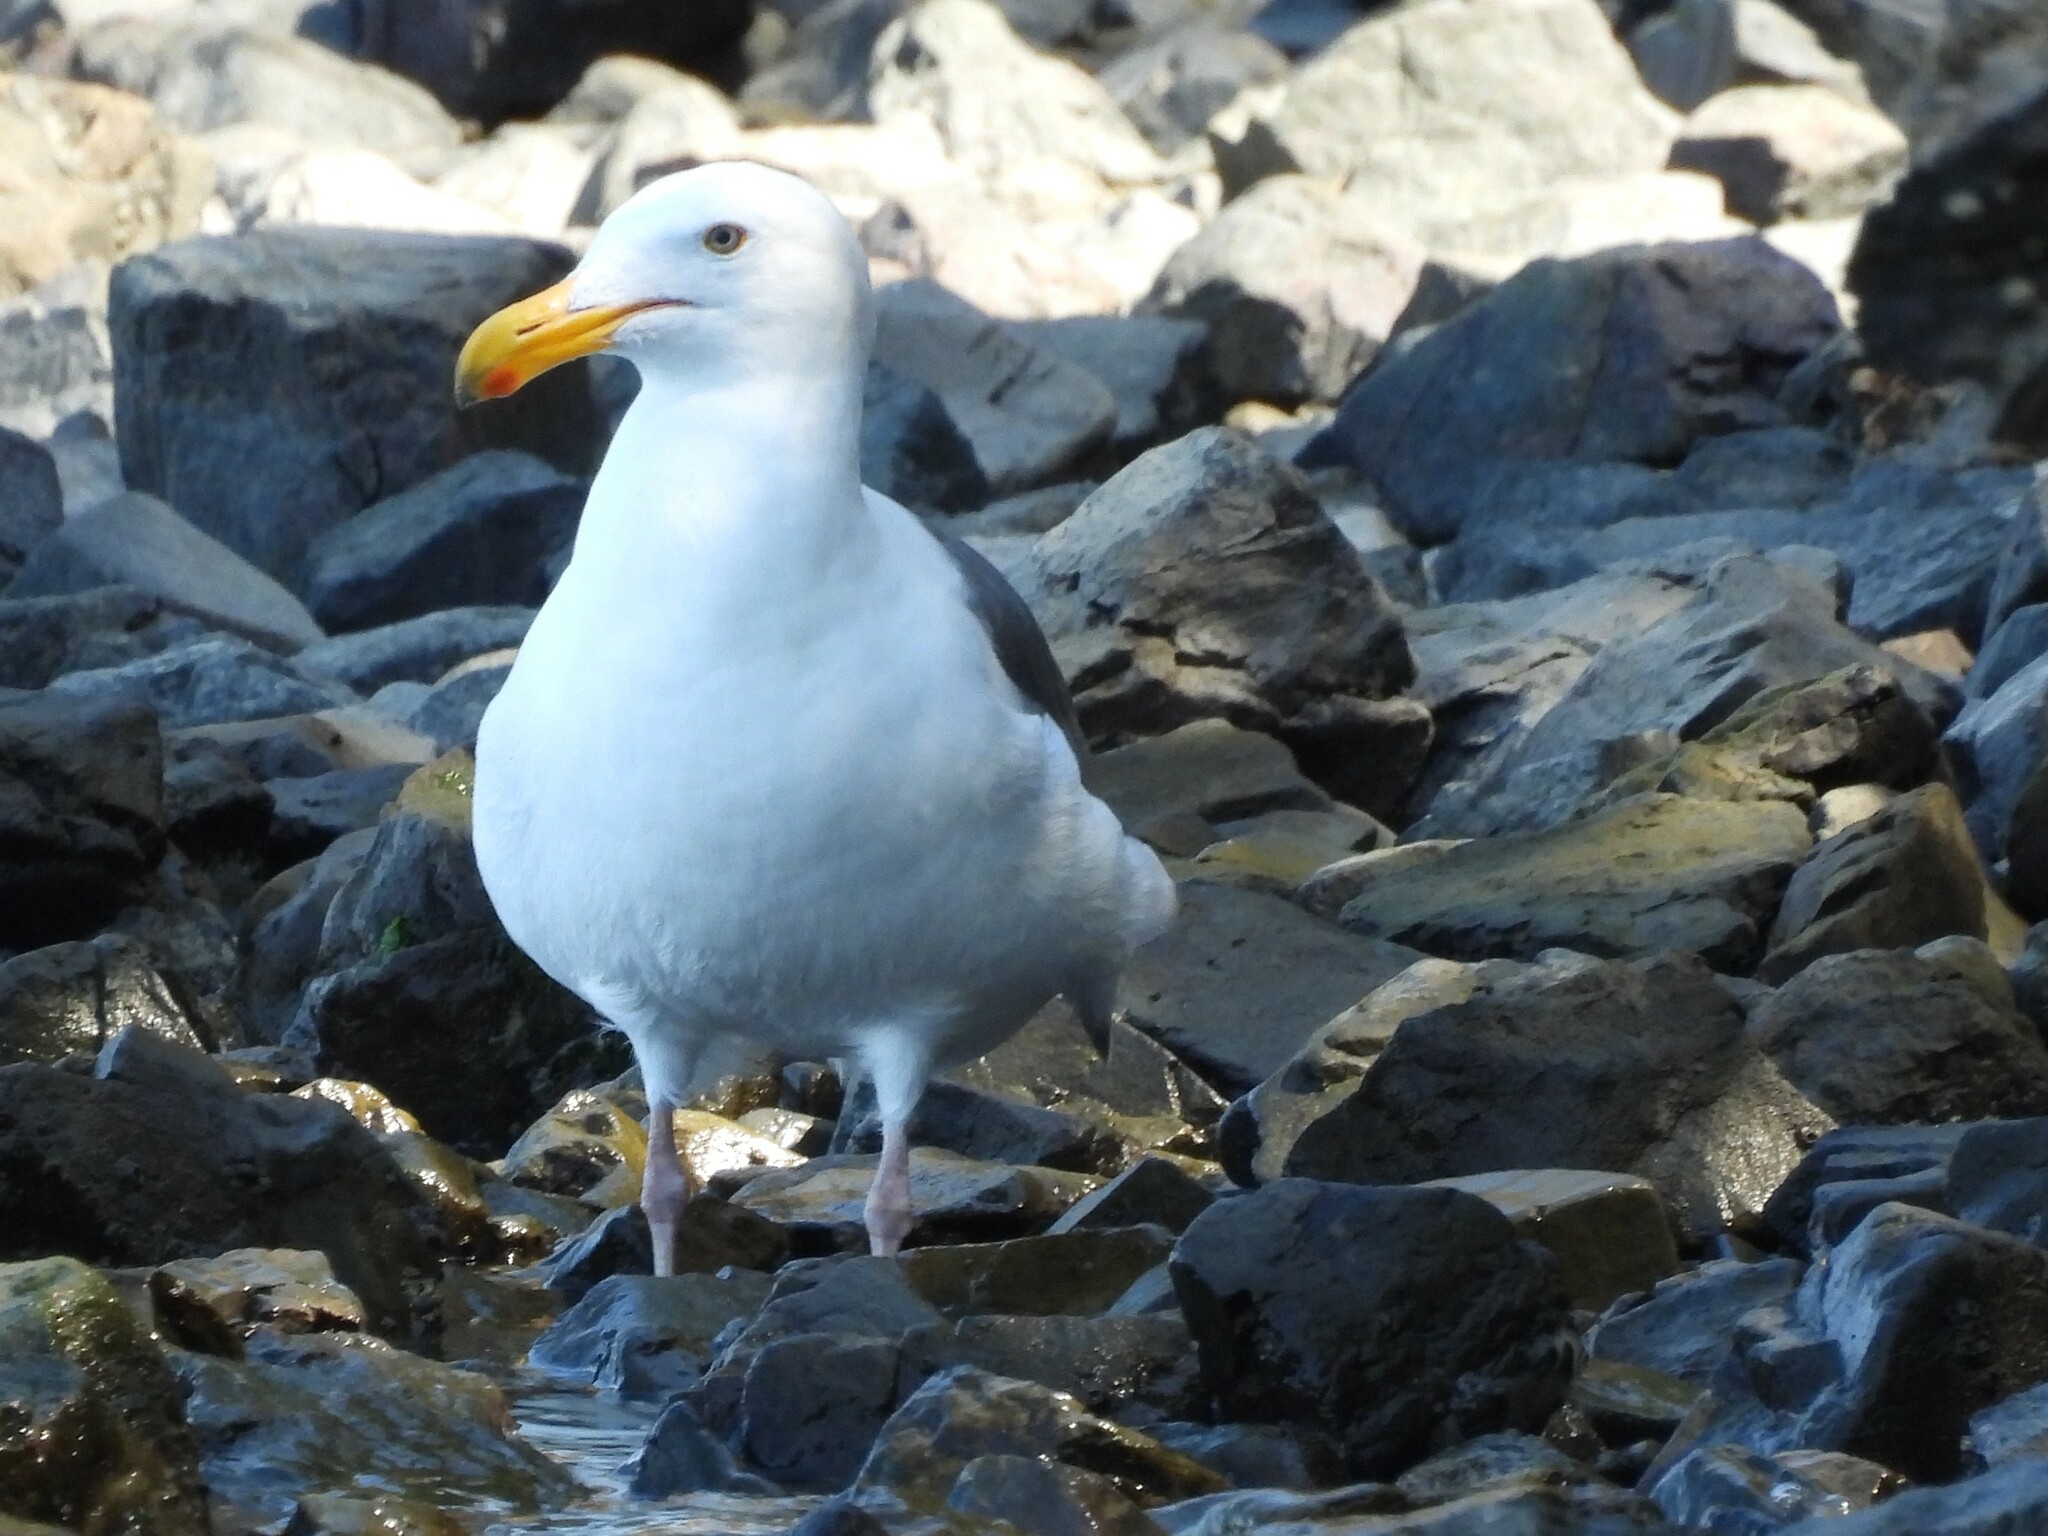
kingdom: Animalia
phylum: Chordata
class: Aves
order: Charadriiformes
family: Laridae
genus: Larus
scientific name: Larus occidentalis
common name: Western gull
